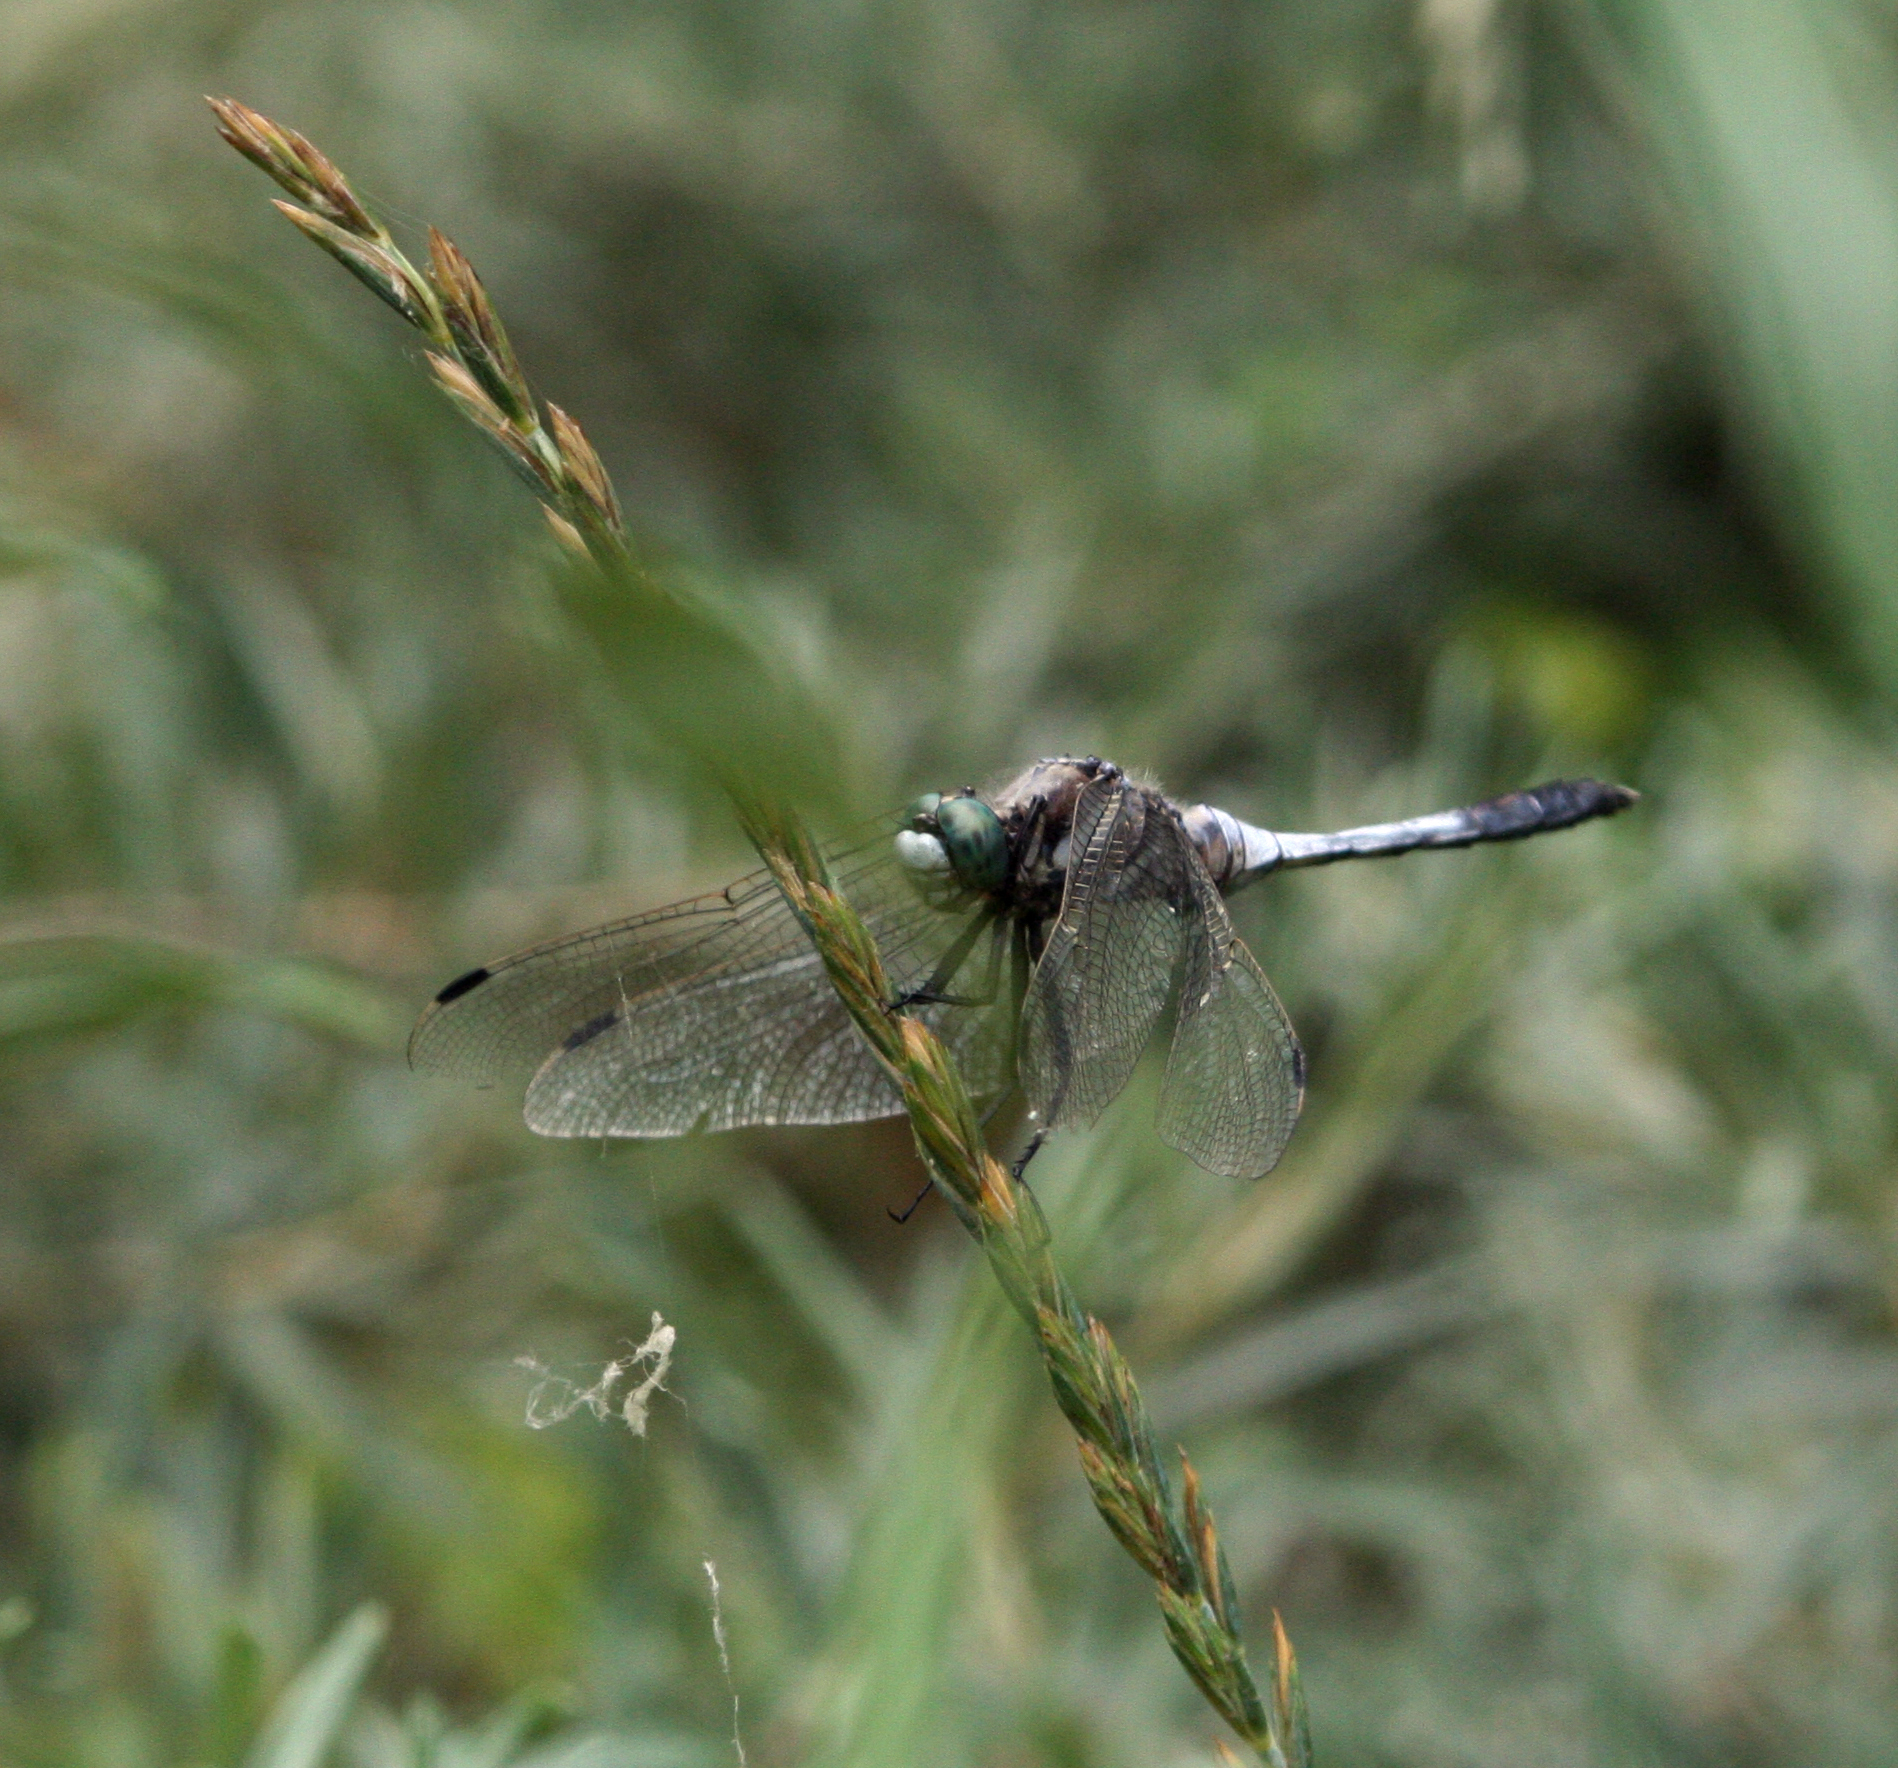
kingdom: Animalia
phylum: Arthropoda
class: Insecta
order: Odonata
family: Libellulidae
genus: Orthetrum
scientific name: Orthetrum albistylum
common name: White-tailed skimmer
